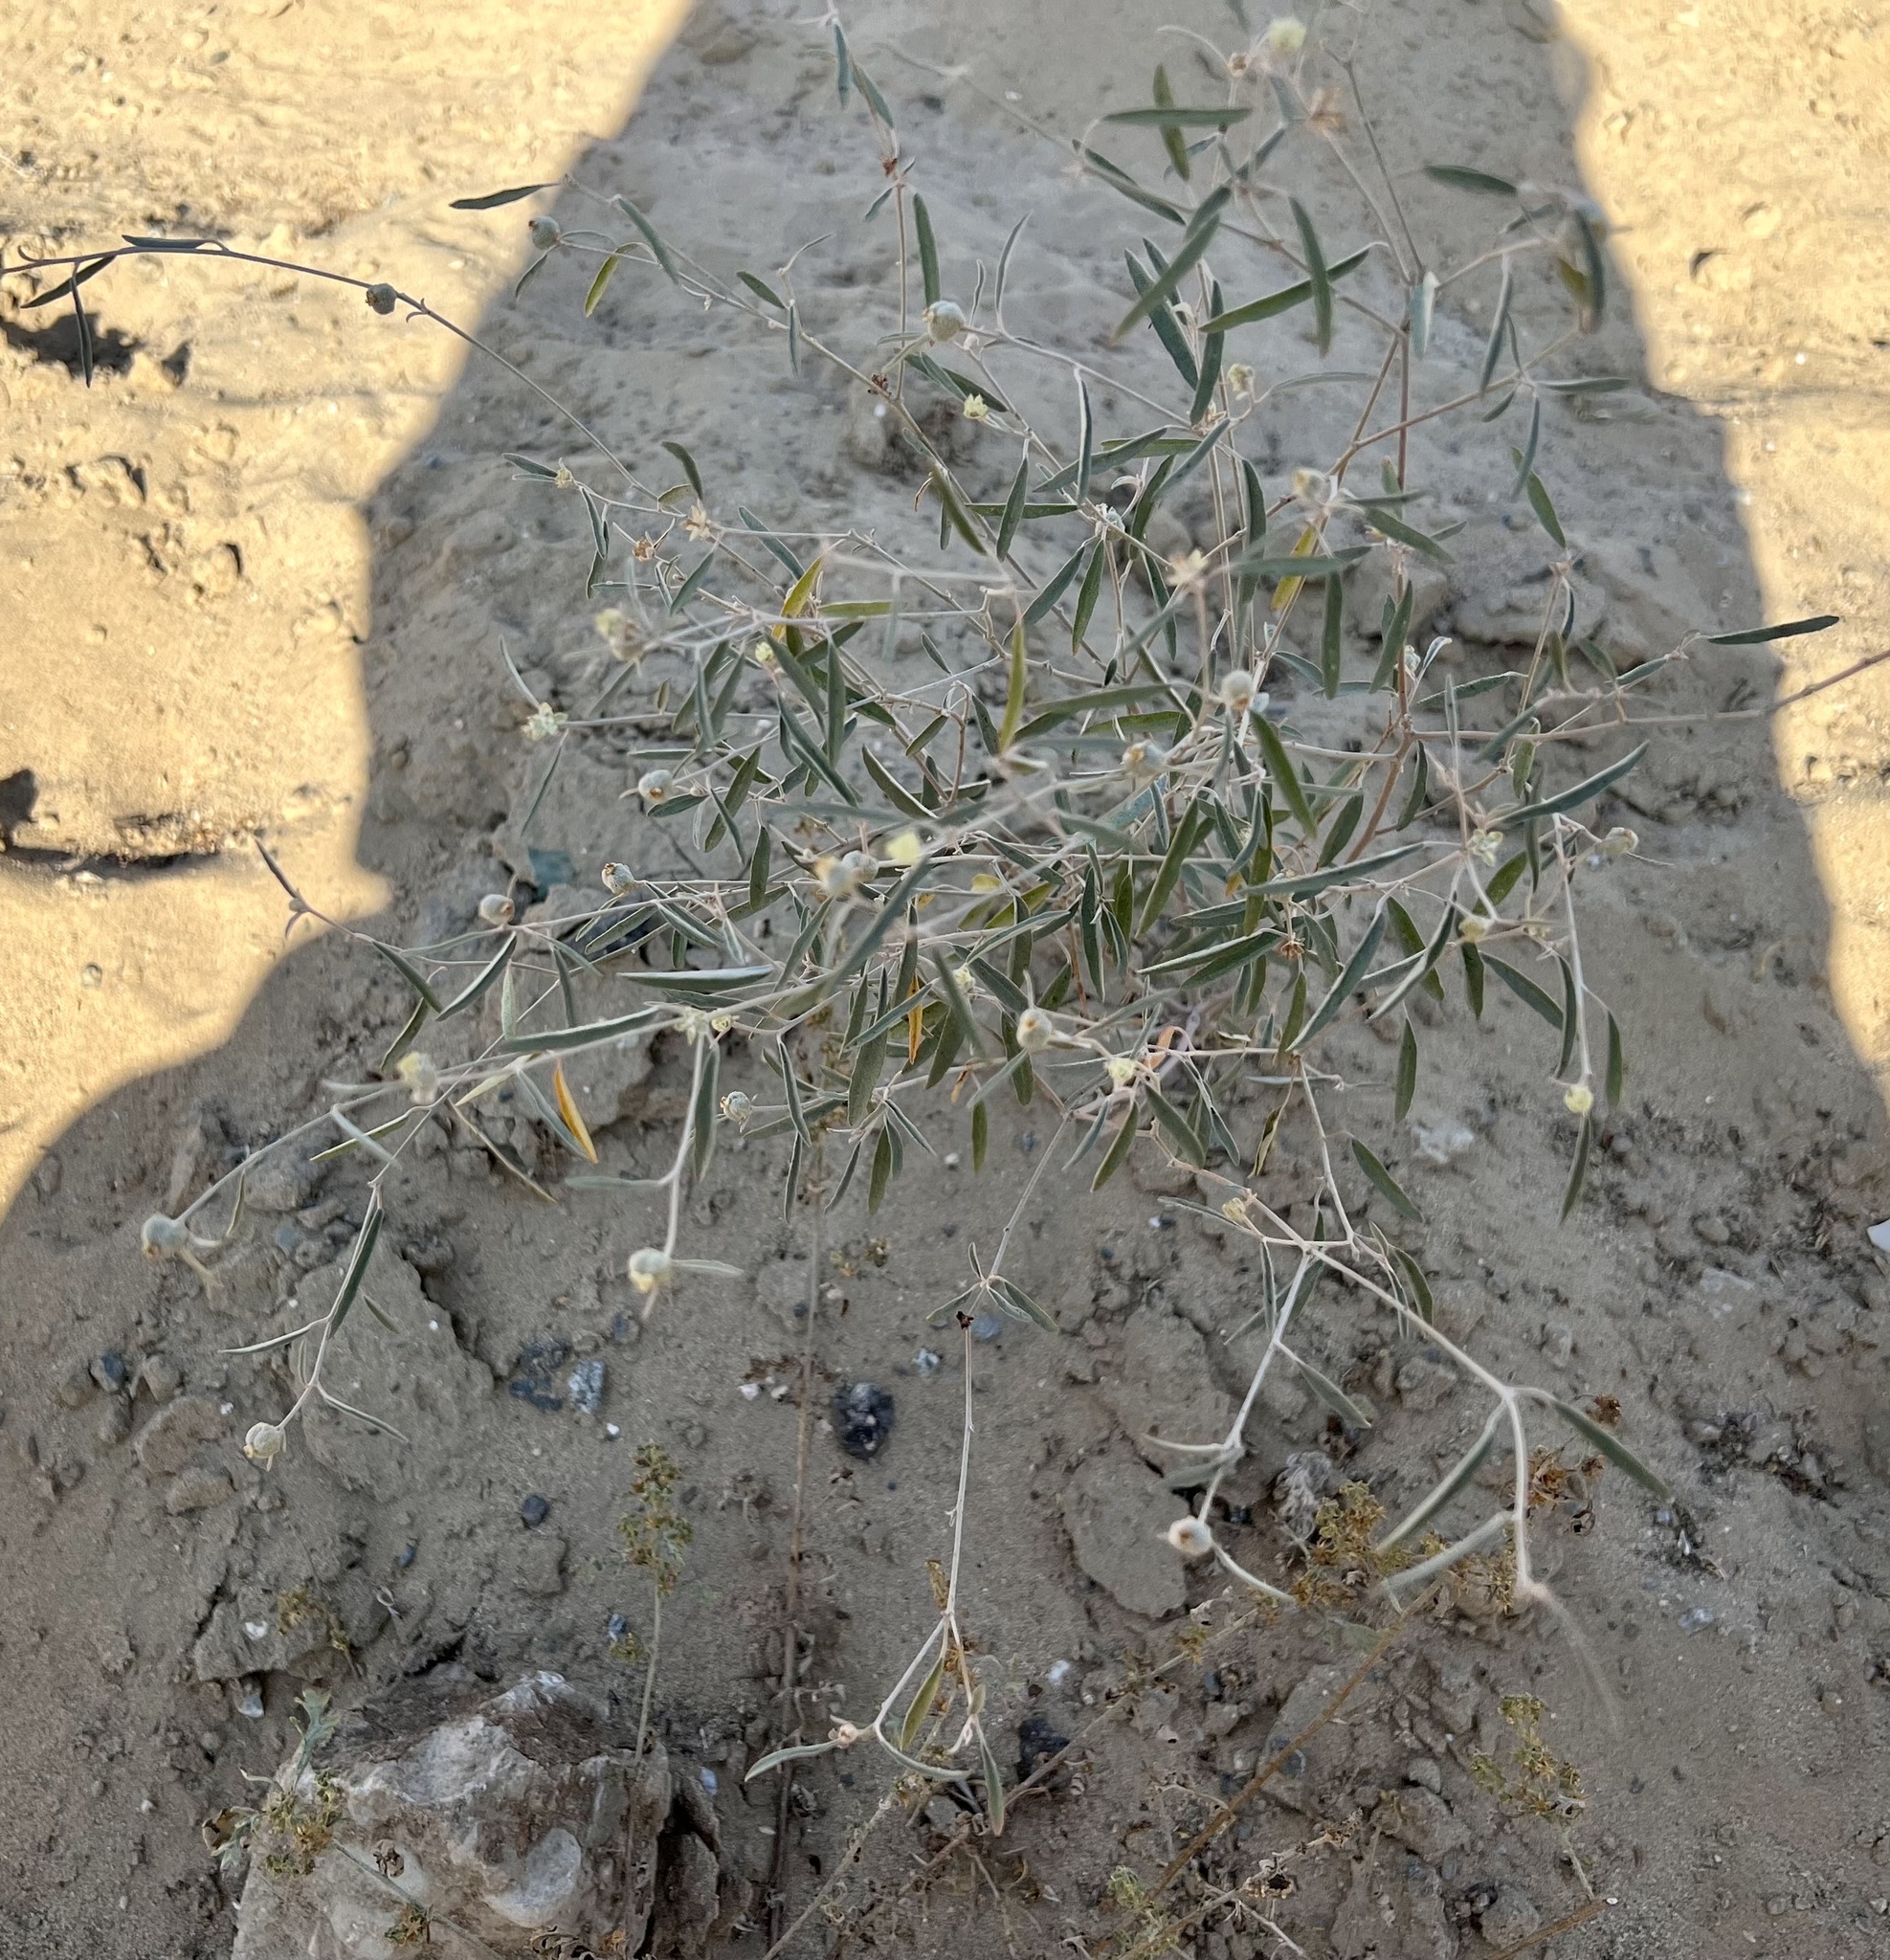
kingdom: Plantae
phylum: Tracheophyta
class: Magnoliopsida
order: Malpighiales
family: Euphorbiaceae
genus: Croton
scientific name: Croton californicus
